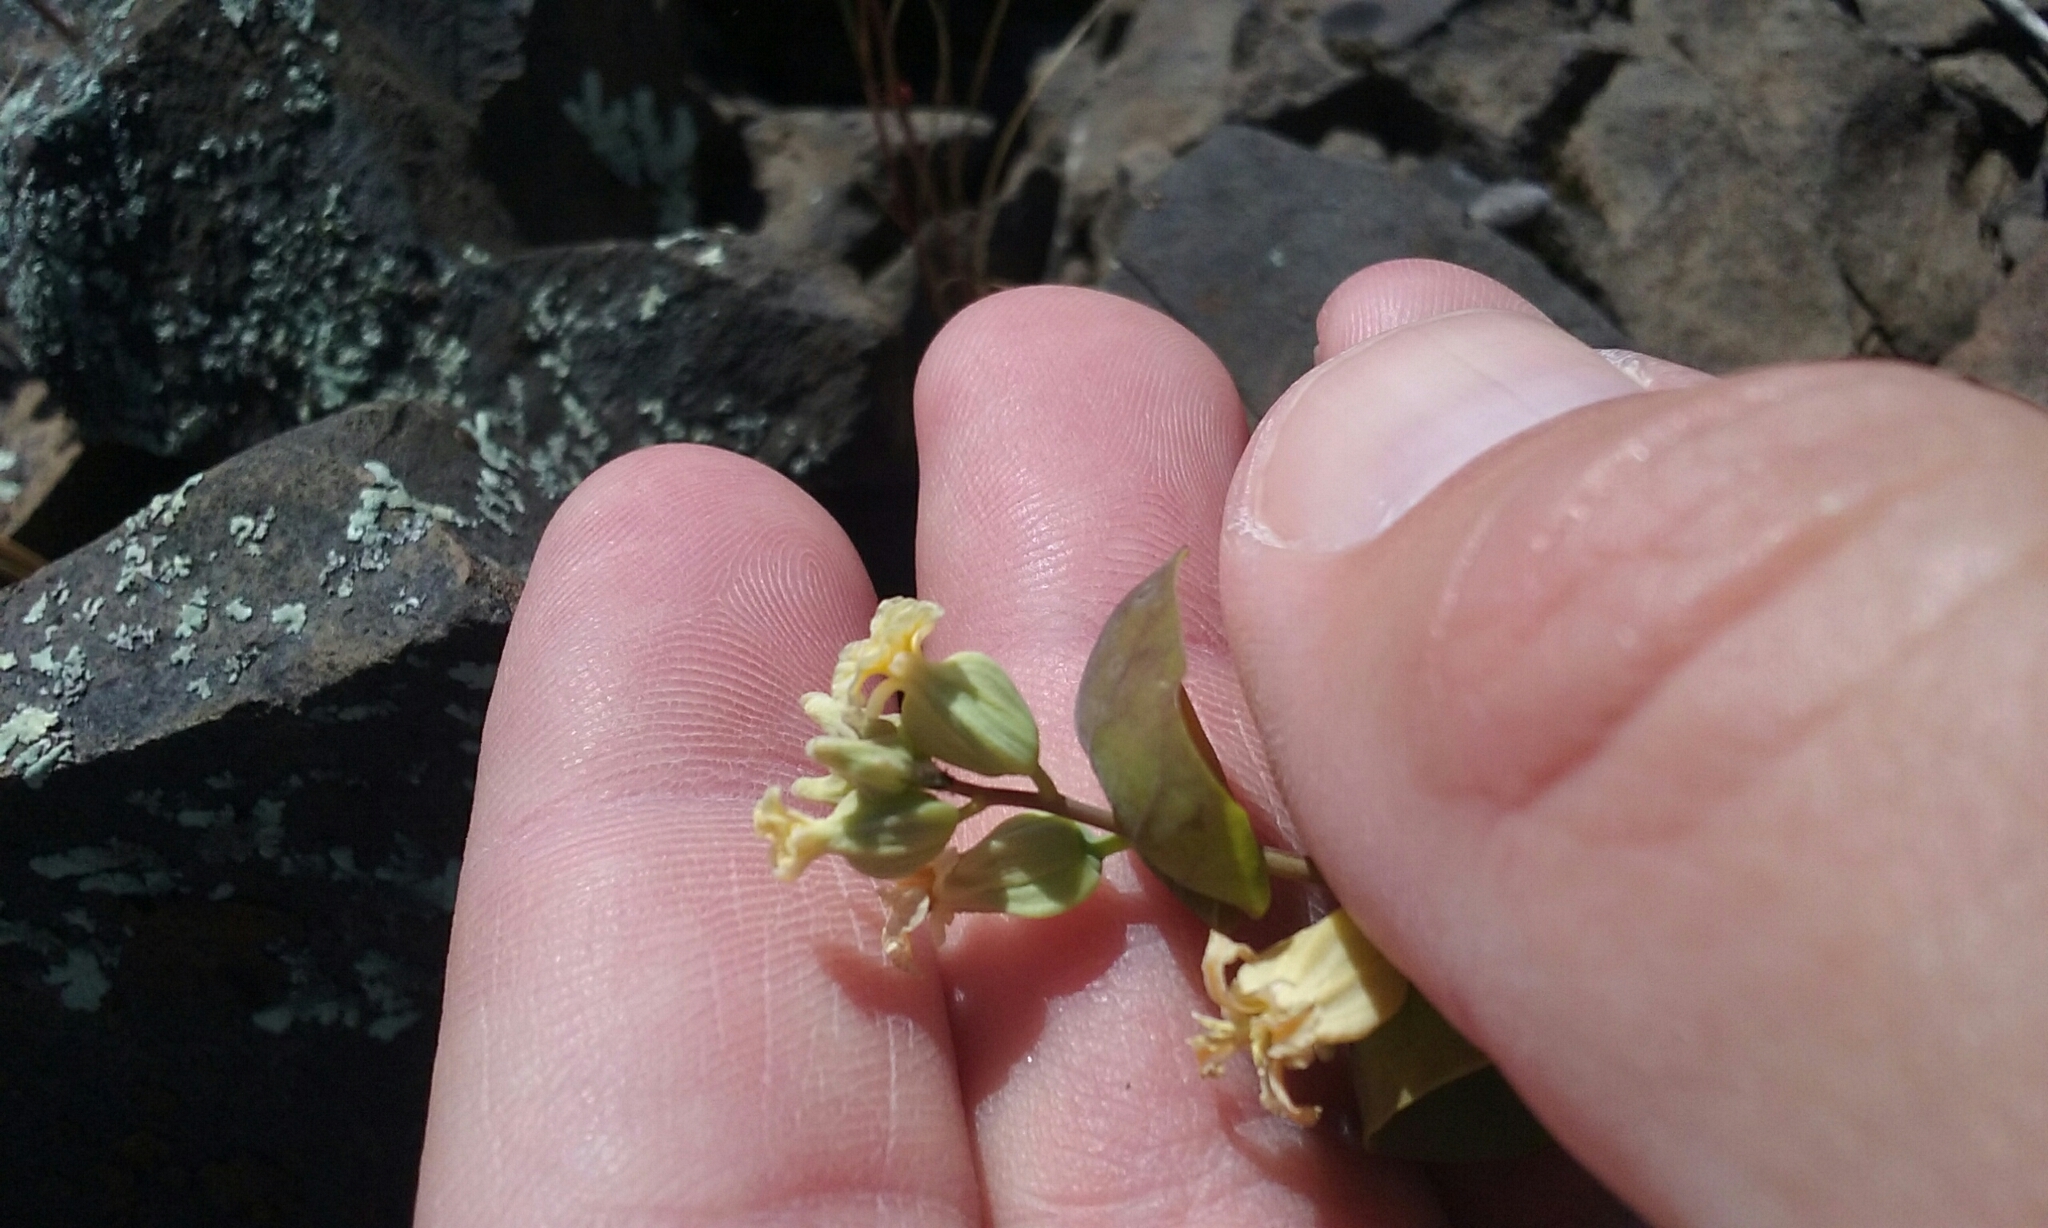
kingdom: Plantae
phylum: Tracheophyta
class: Magnoliopsida
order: Brassicales
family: Brassicaceae
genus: Streptanthus
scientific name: Streptanthus diversifolius
